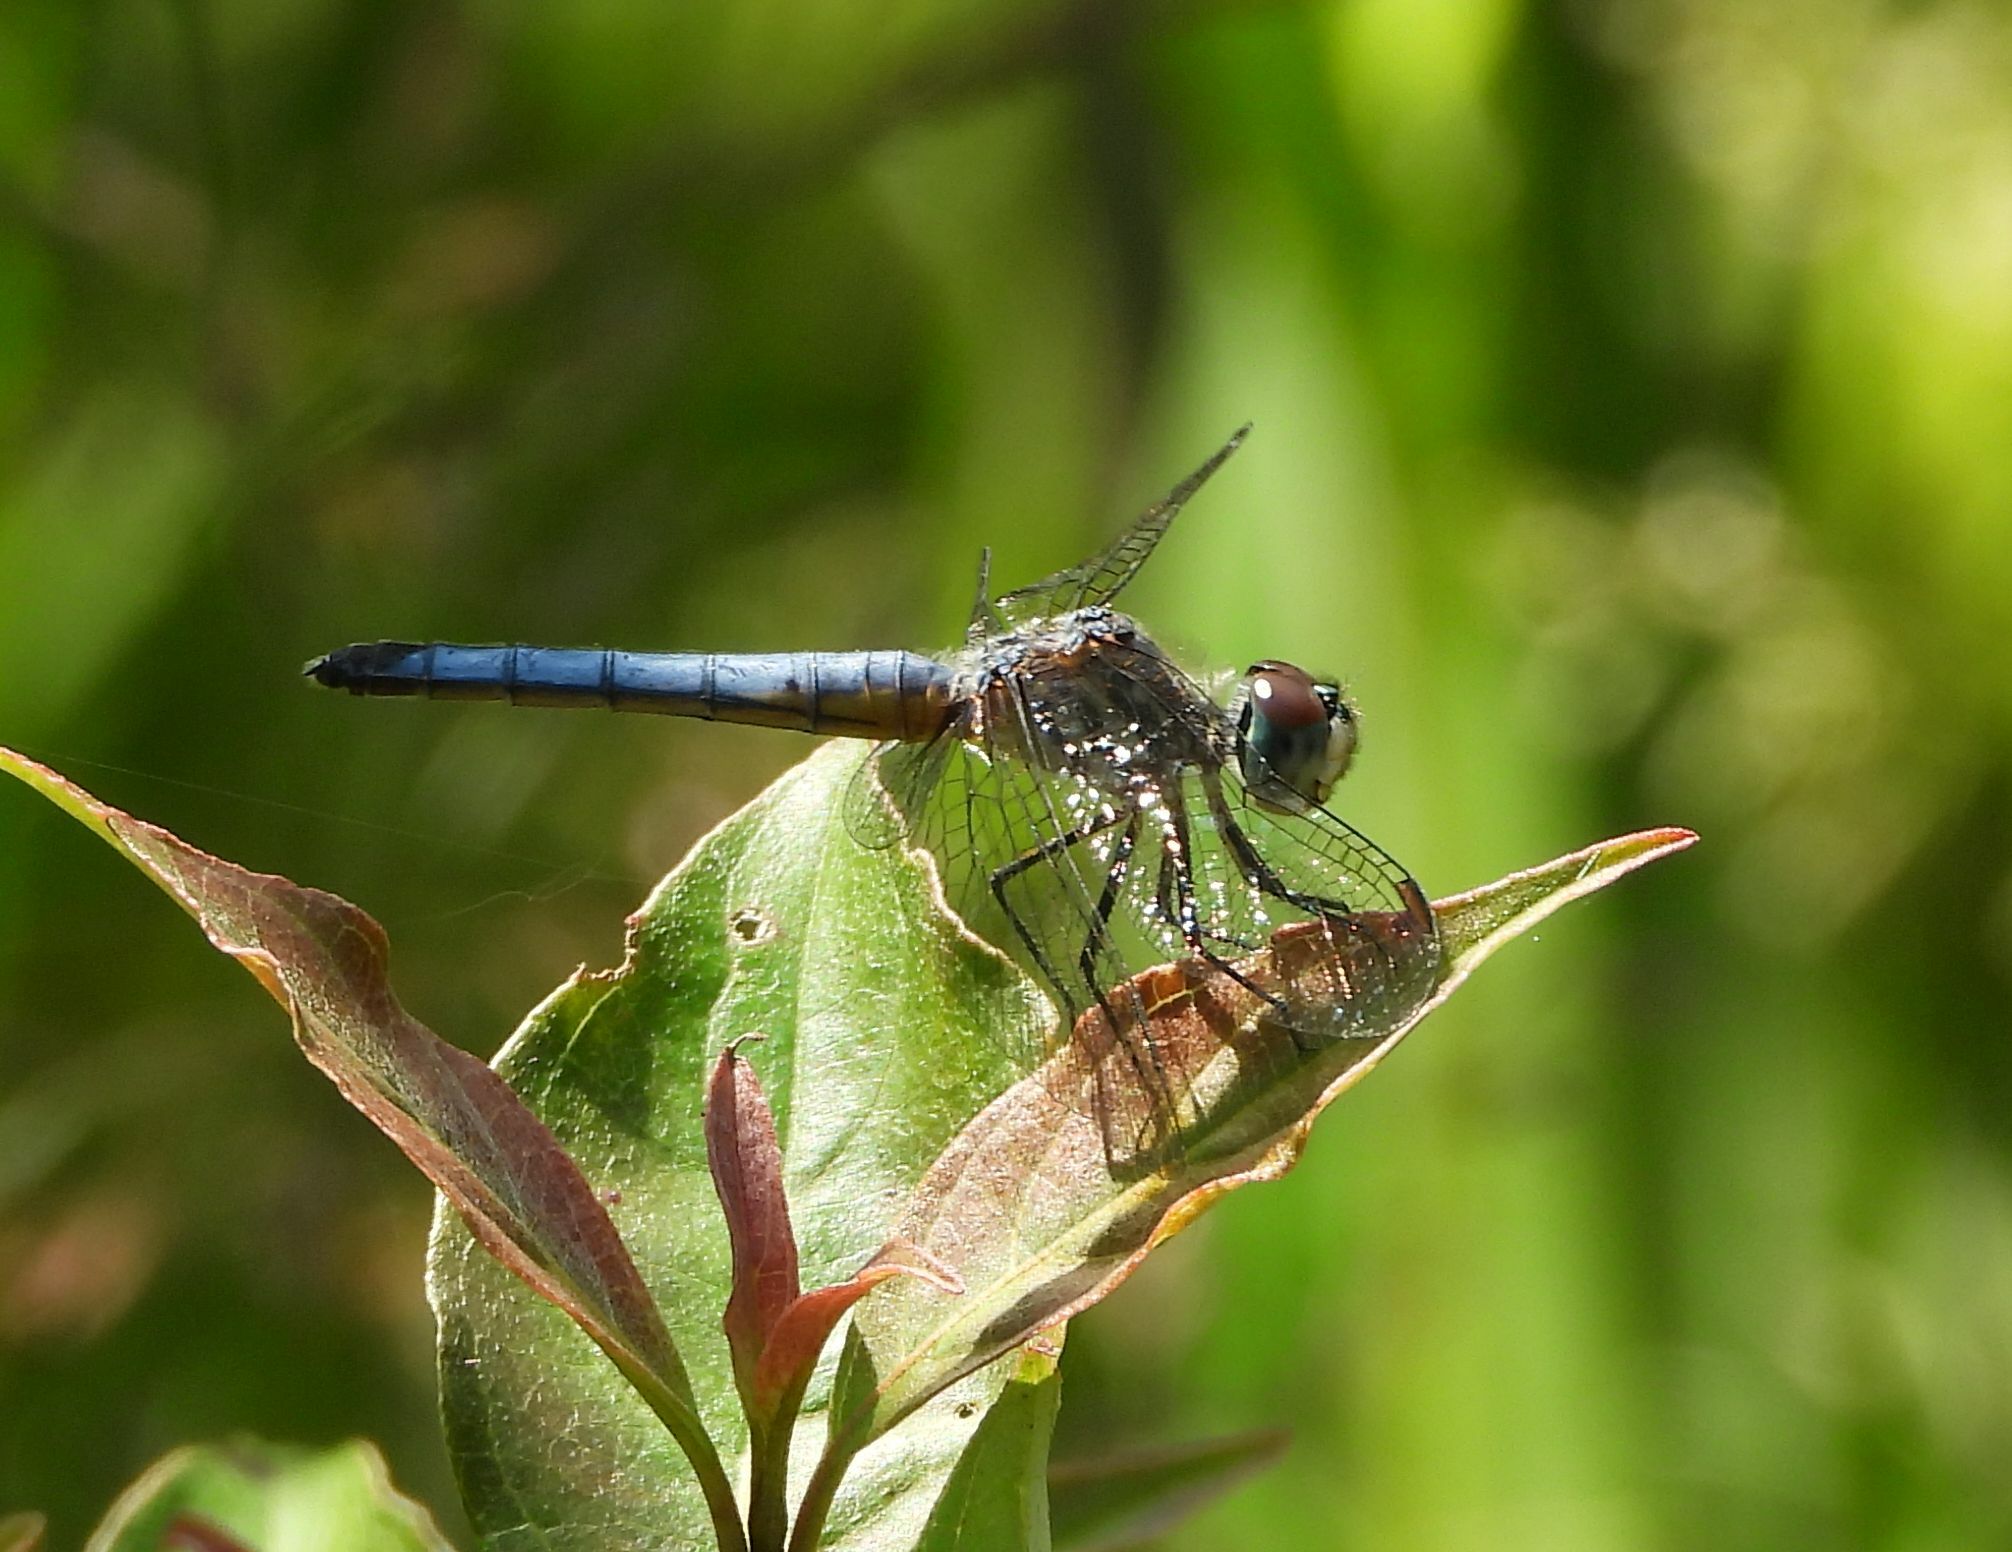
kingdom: Animalia
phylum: Arthropoda
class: Insecta
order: Odonata
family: Libellulidae
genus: Pachydiplax
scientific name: Pachydiplax longipennis
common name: Blue dasher
